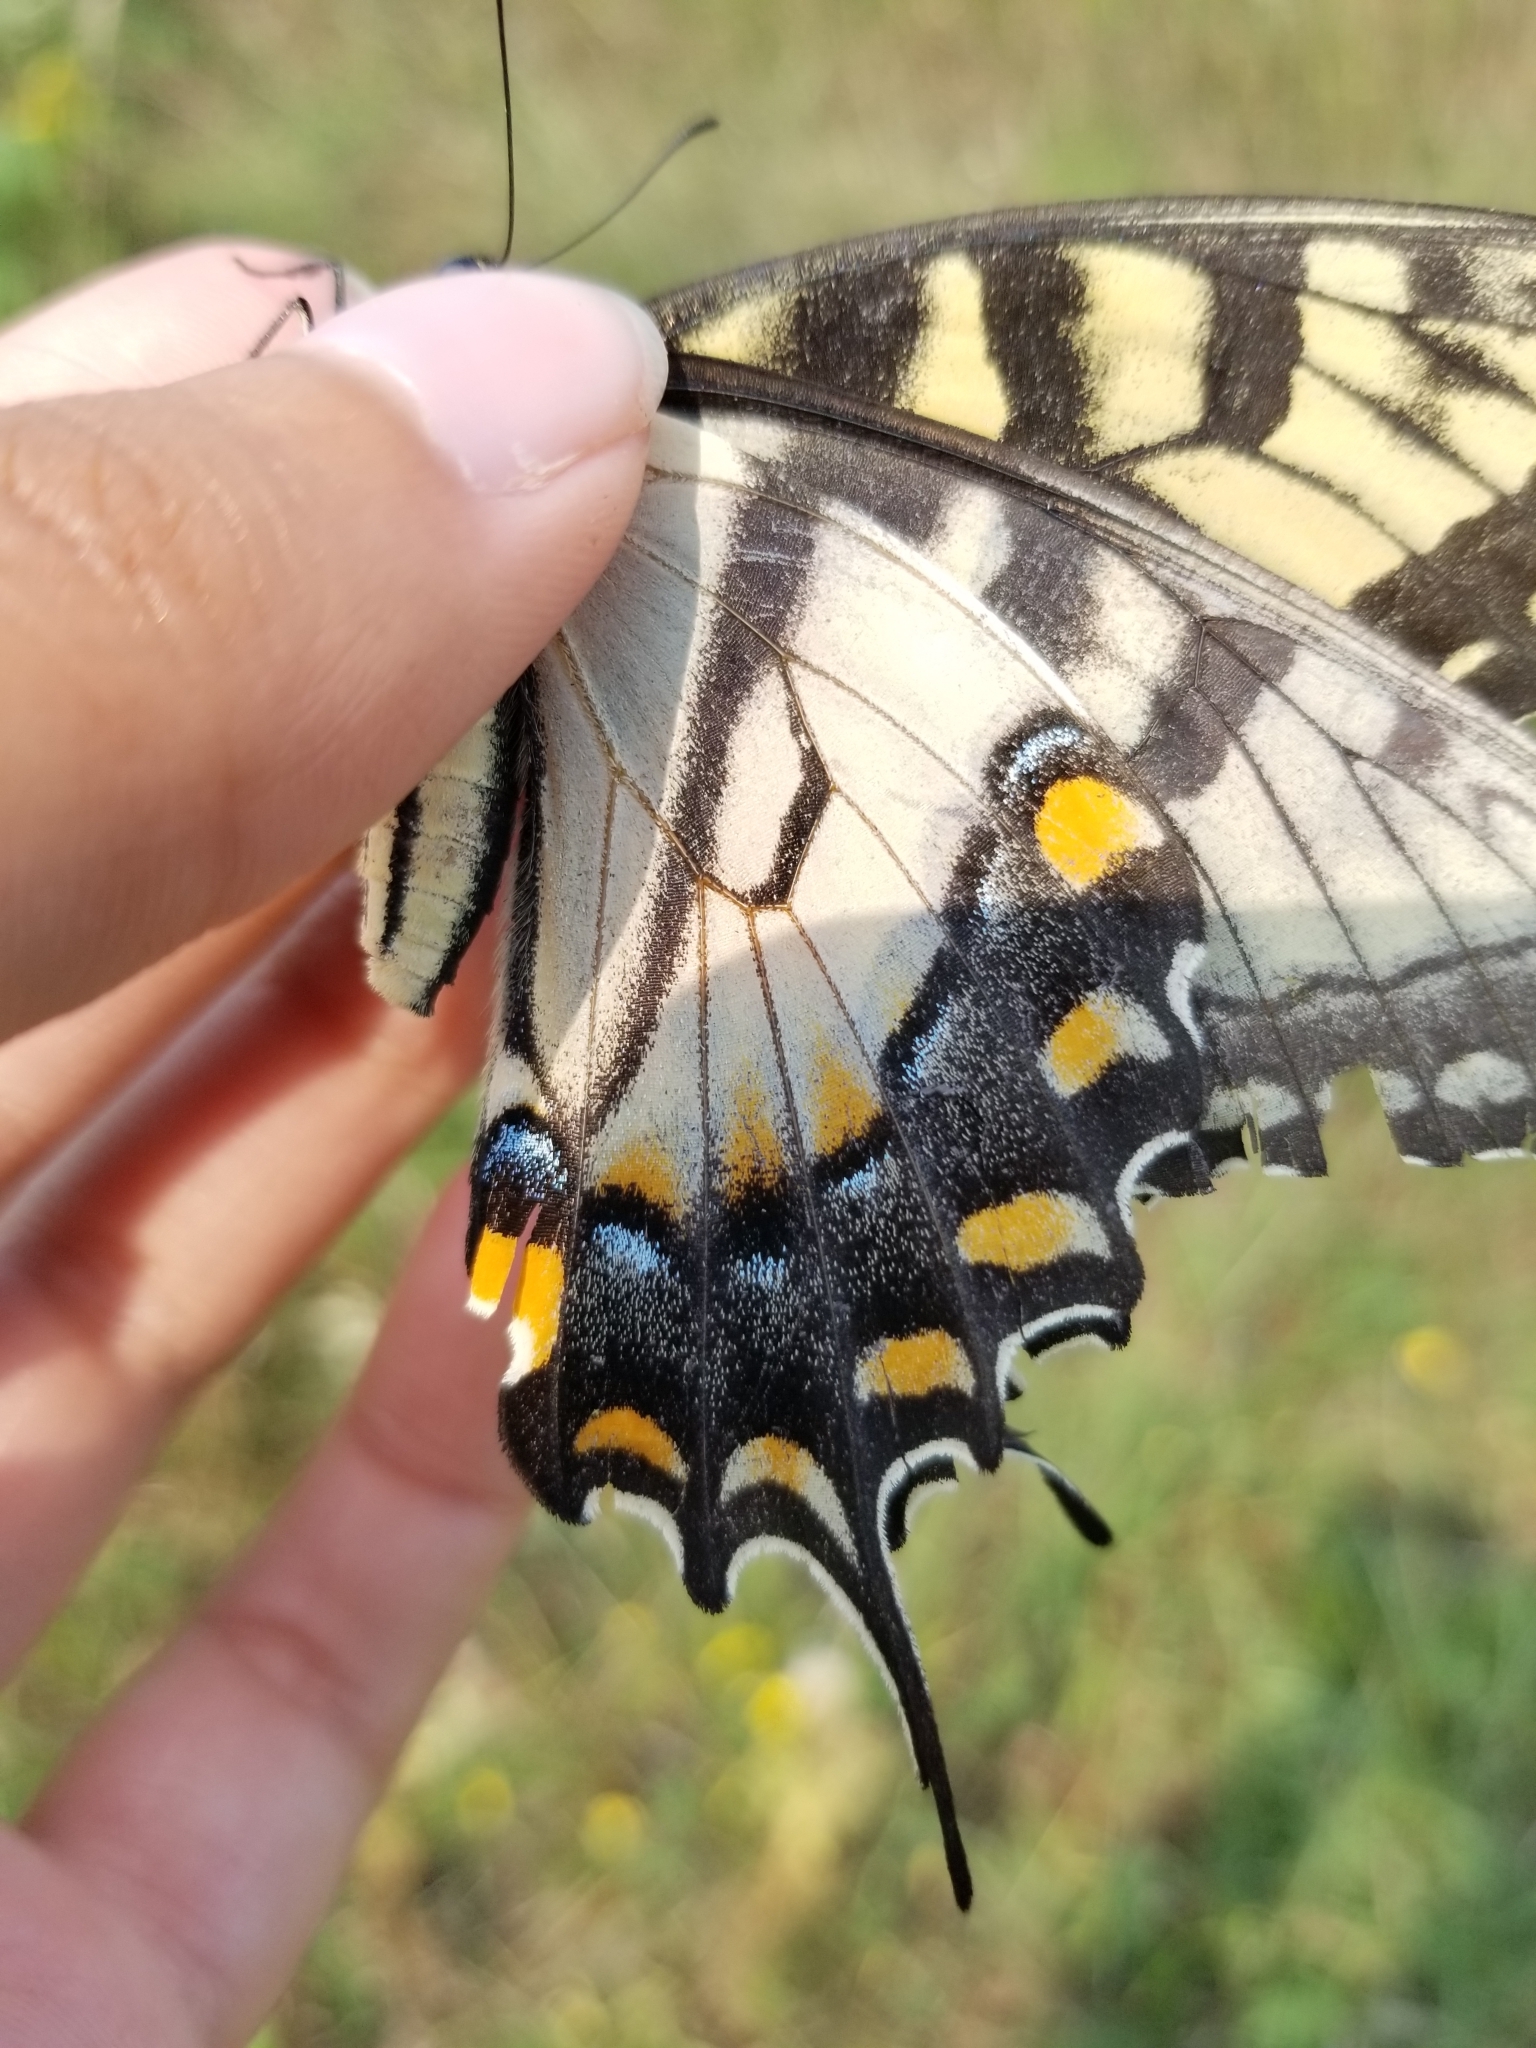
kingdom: Animalia
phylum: Arthropoda
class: Insecta
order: Lepidoptera
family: Papilionidae
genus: Papilio
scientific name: Papilio glaucus
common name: Tiger swallowtail
